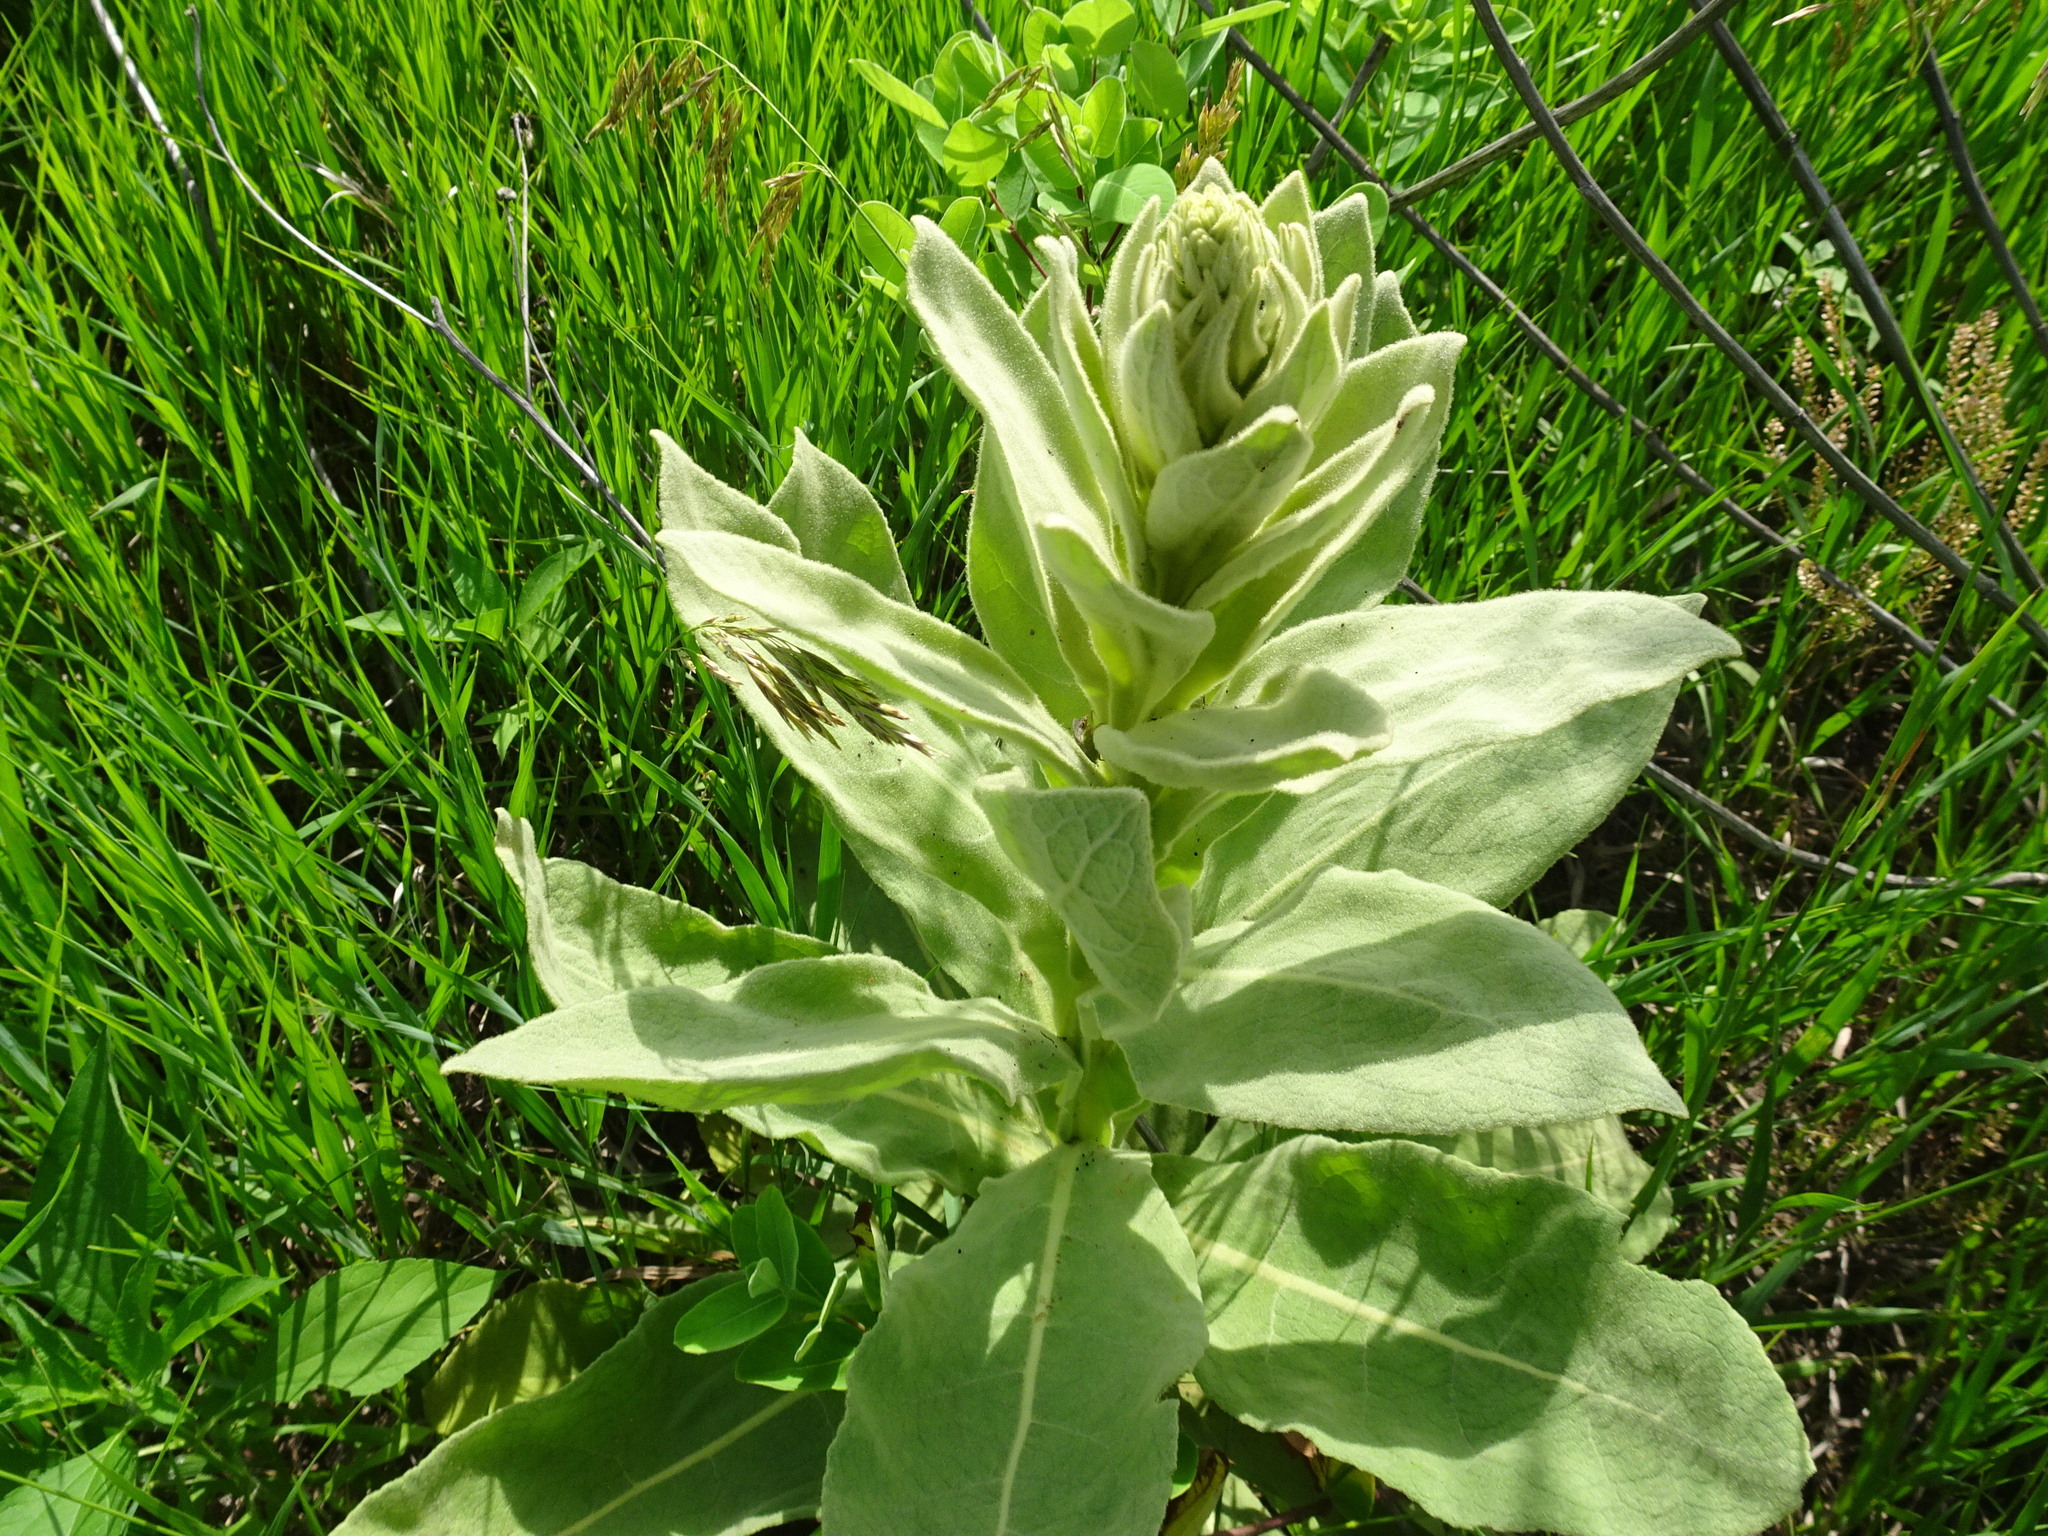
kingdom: Plantae
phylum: Tracheophyta
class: Magnoliopsida
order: Lamiales
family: Scrophulariaceae
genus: Verbascum
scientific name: Verbascum thapsus
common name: Common mullein
